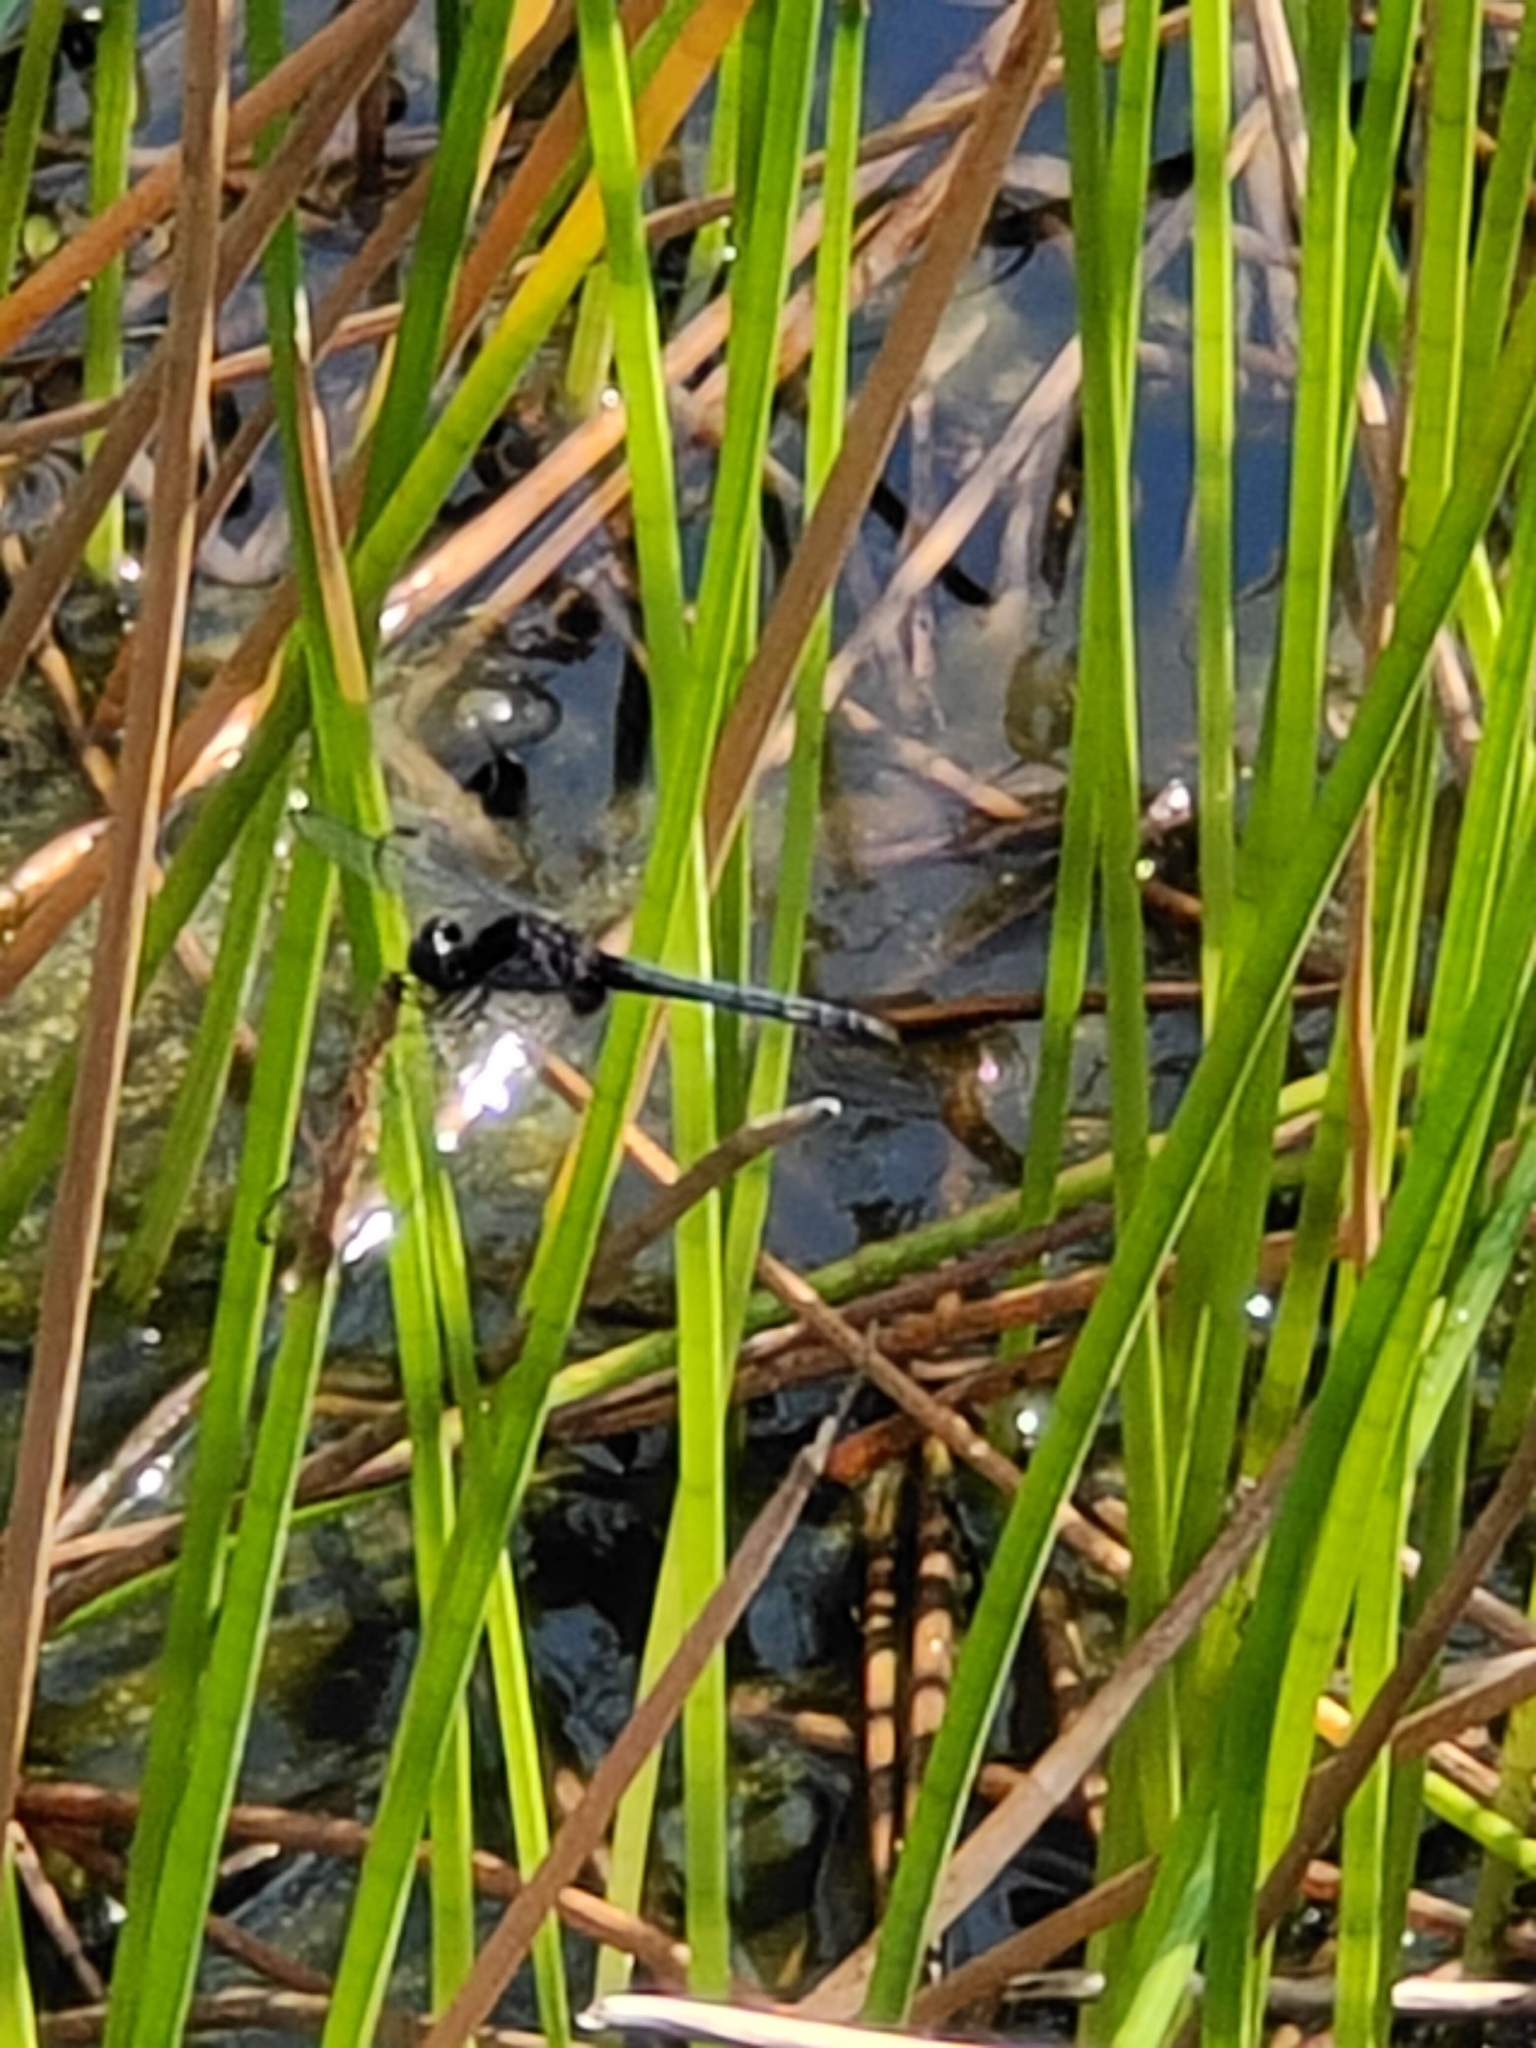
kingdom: Animalia
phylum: Arthropoda
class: Insecta
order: Odonata
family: Libellulidae
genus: Indothemis
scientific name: Indothemis limbata
